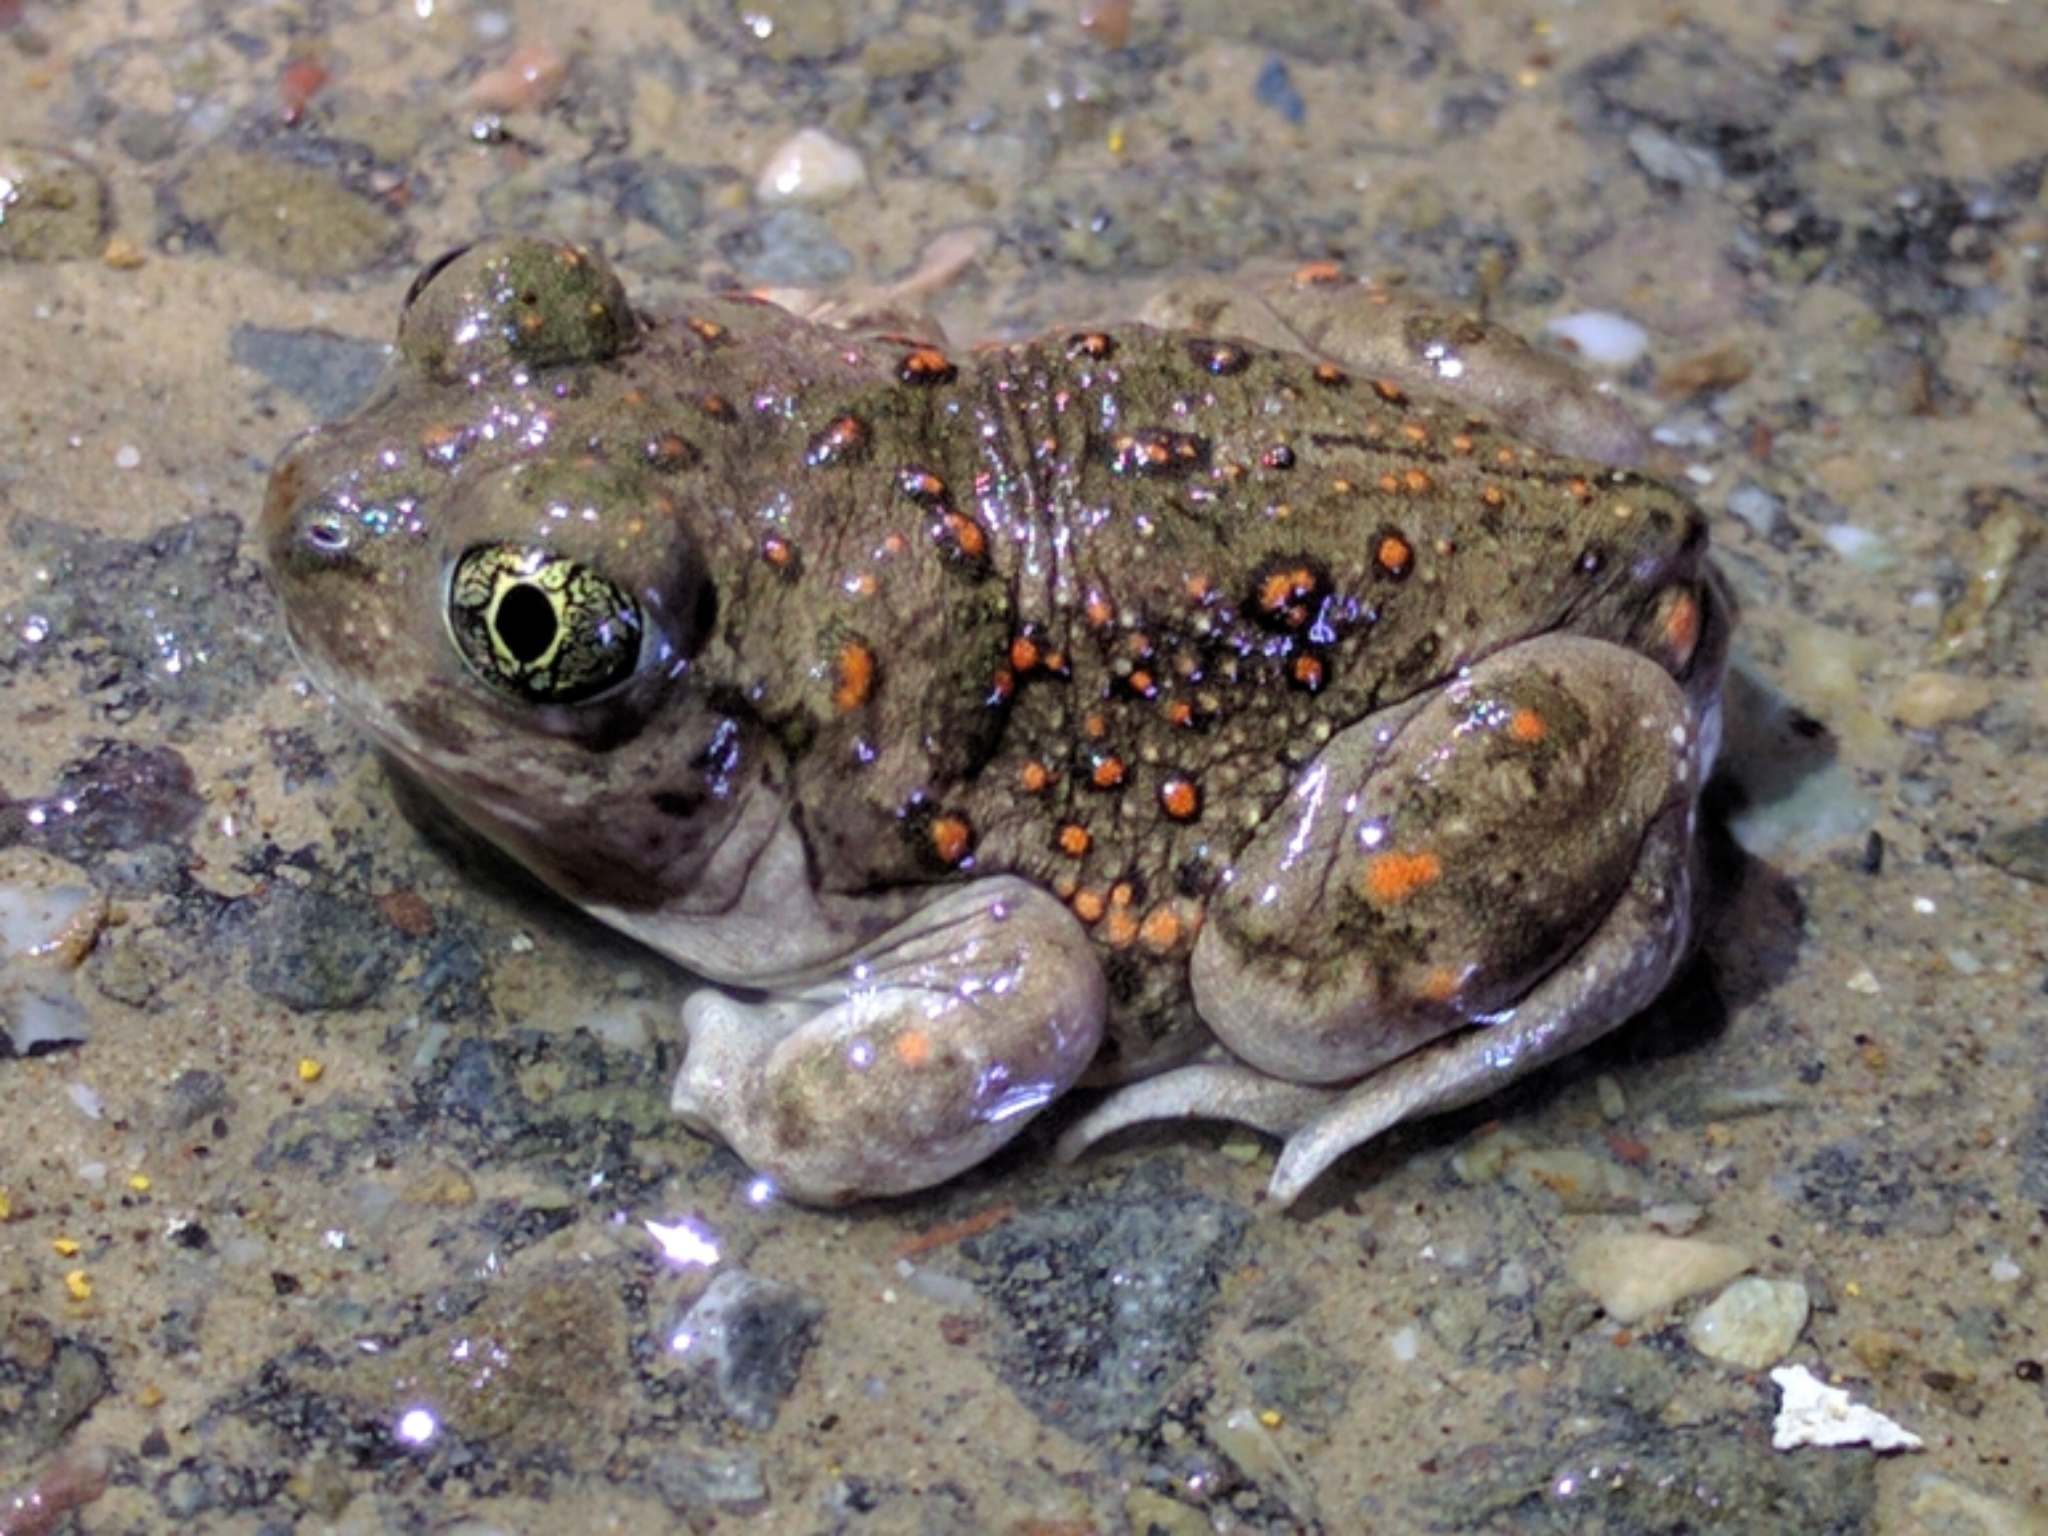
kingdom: Animalia
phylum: Chordata
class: Amphibia
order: Anura
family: Scaphiopodidae
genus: Spea
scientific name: Spea hammondii
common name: Western spadefoot toad
